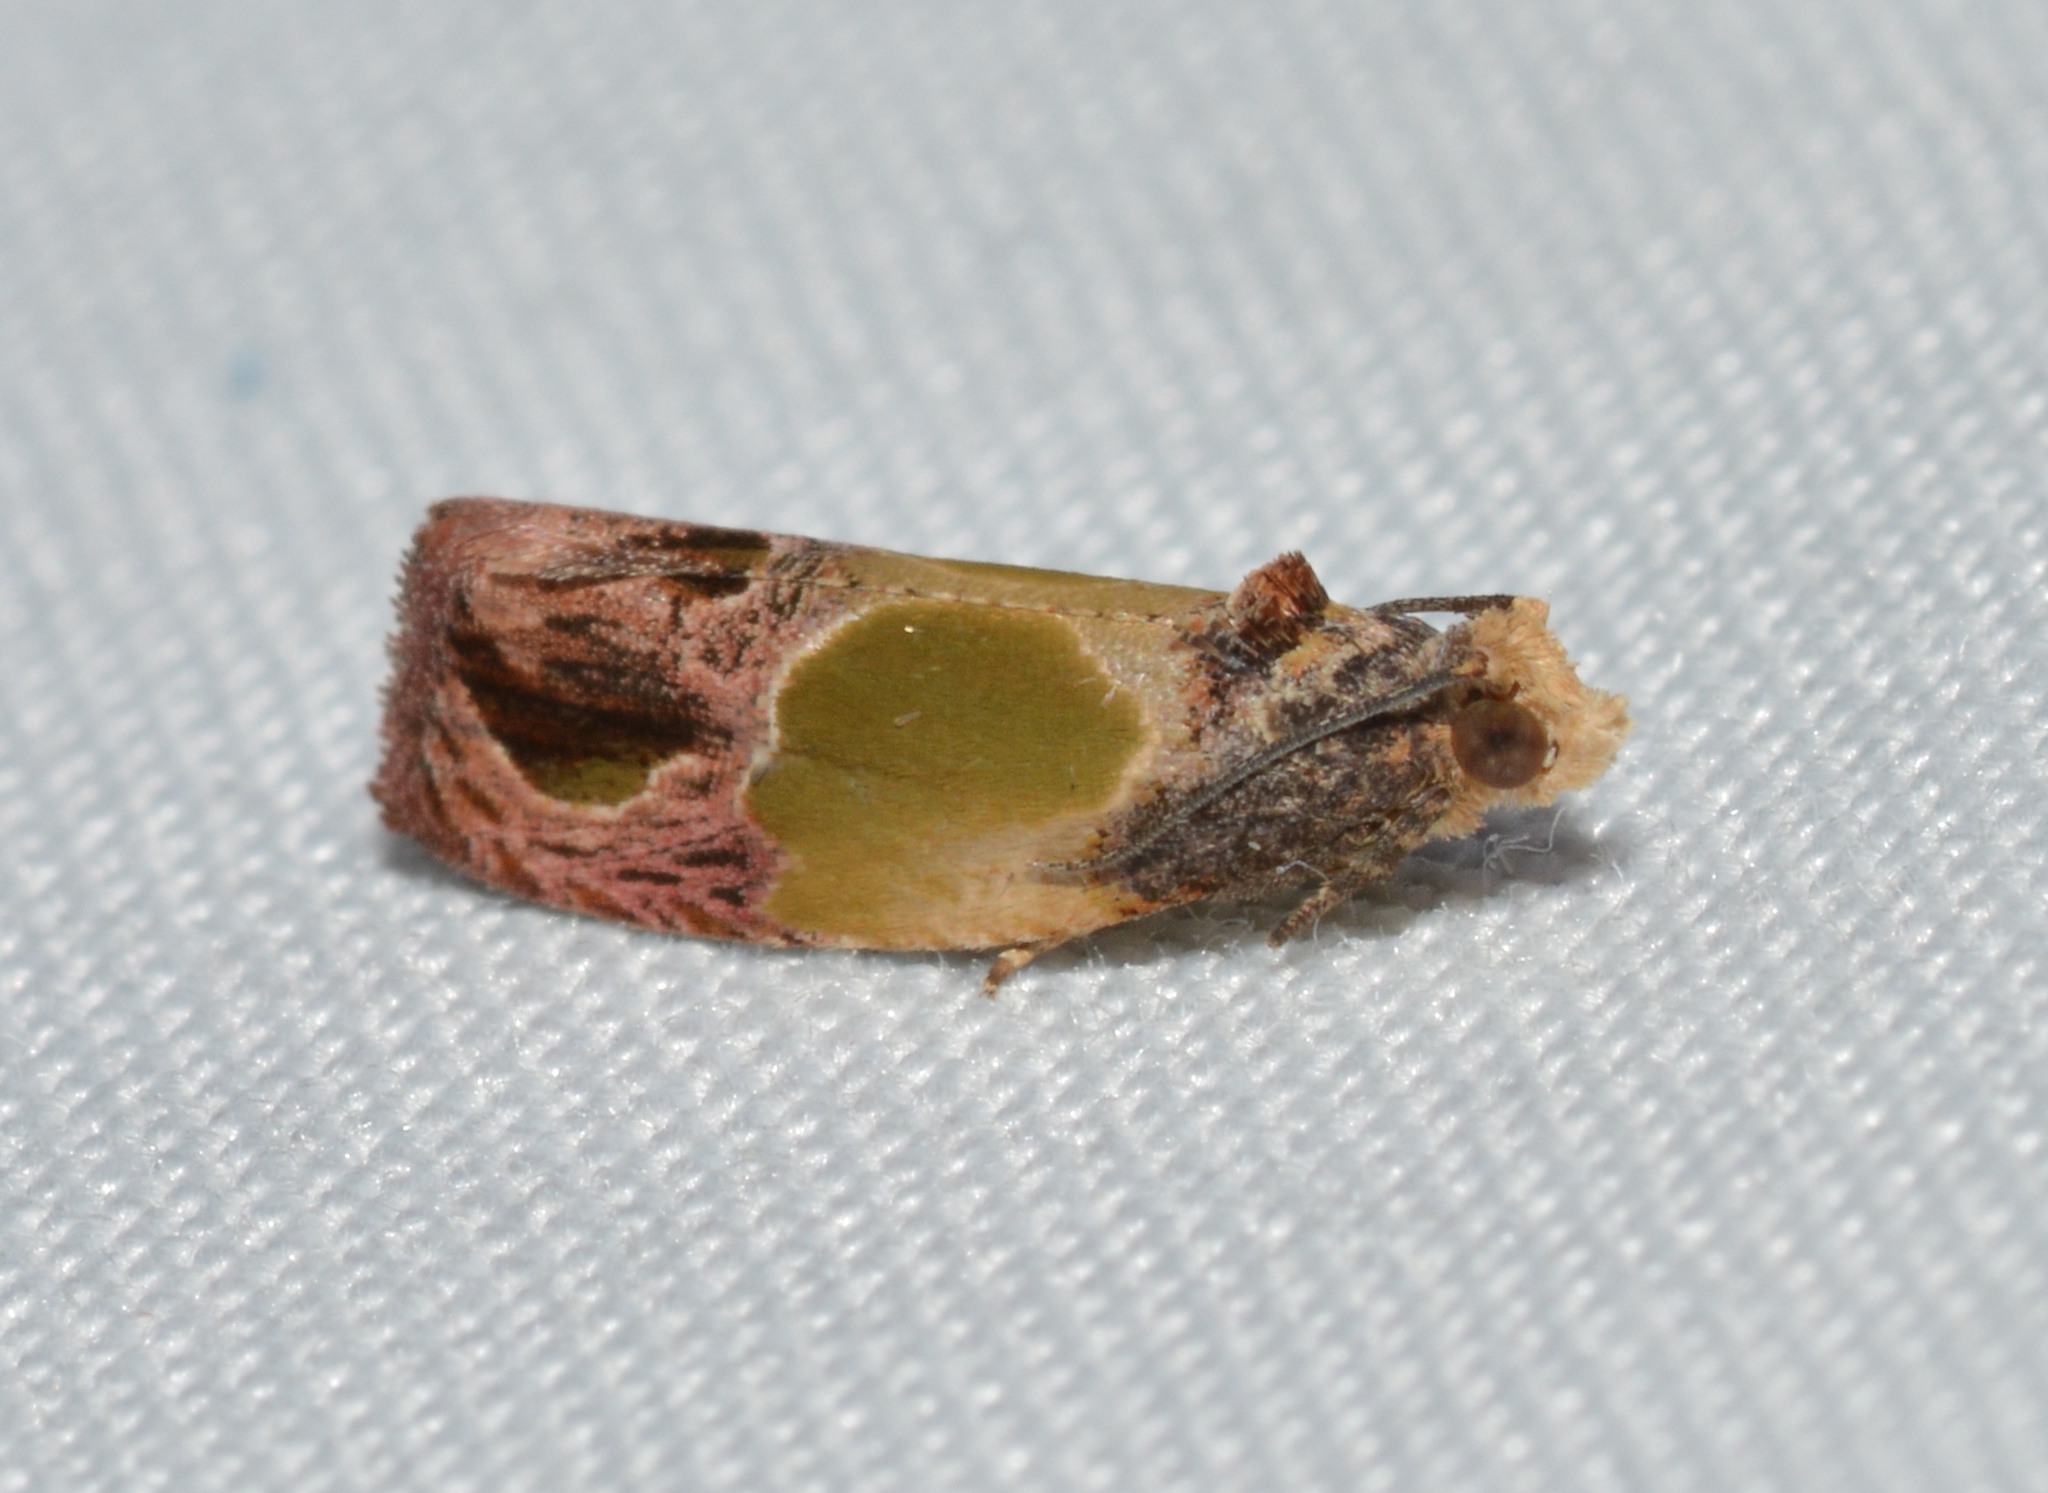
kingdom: Animalia
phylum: Arthropoda
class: Insecta
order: Lepidoptera
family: Tortricidae
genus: Eumarozia
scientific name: Eumarozia malachitana
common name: Sculptured moth
